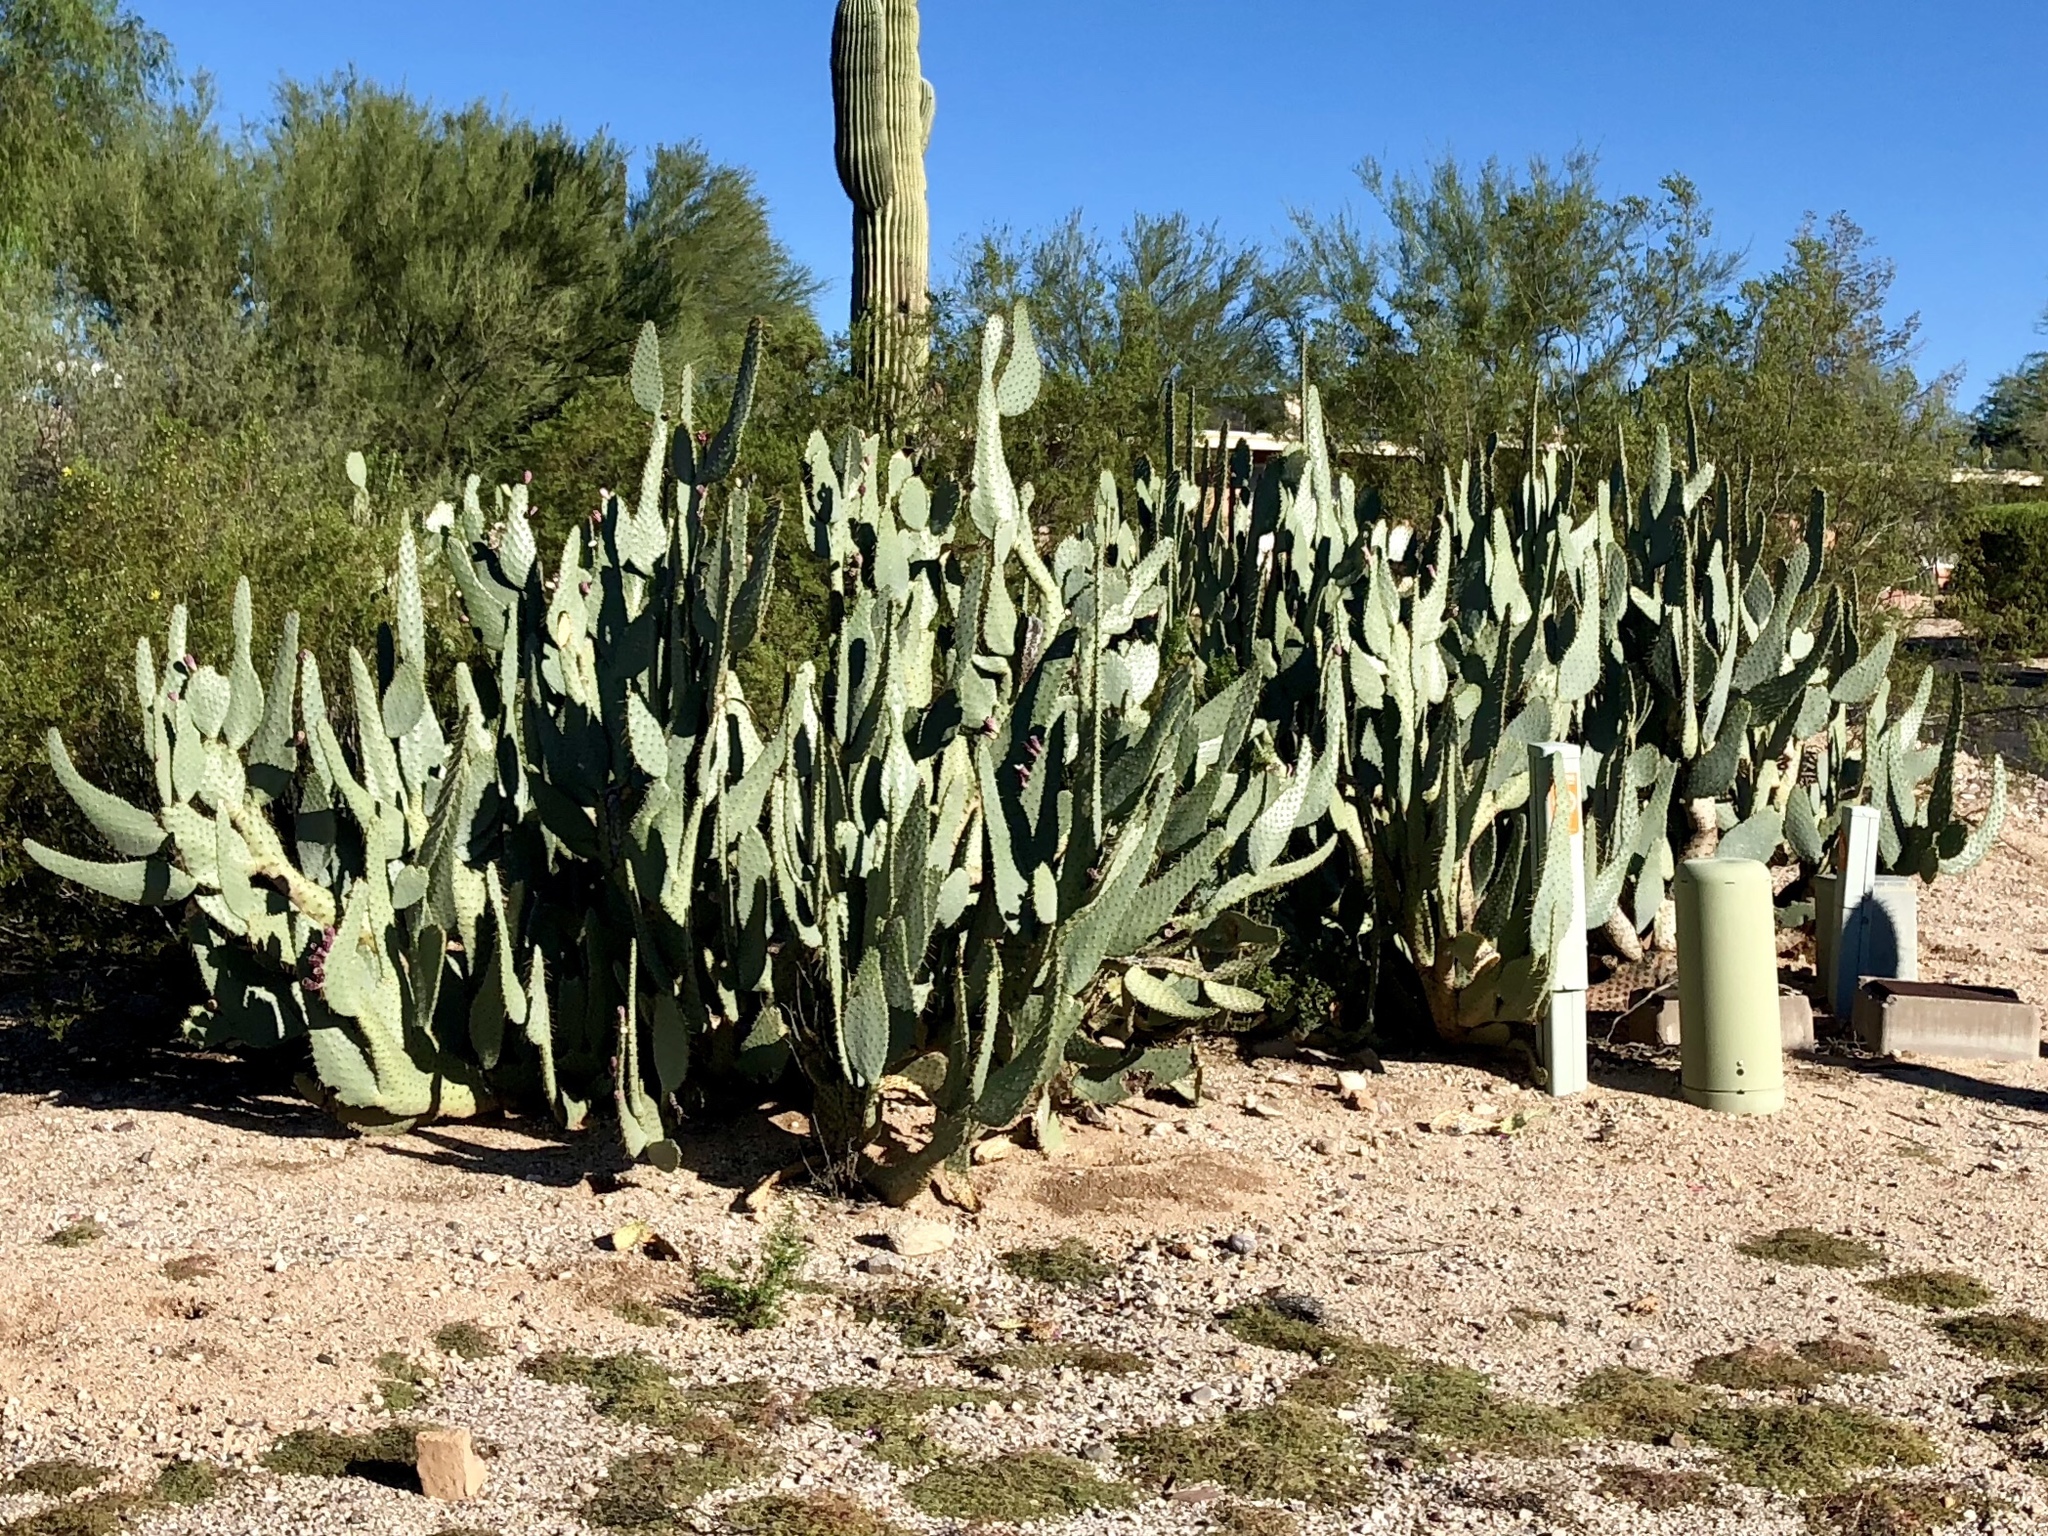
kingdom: Plantae
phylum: Tracheophyta
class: Magnoliopsida
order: Caryophyllales
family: Cactaceae
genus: Opuntia
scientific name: Opuntia engelmannii
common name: Cactus-apple
